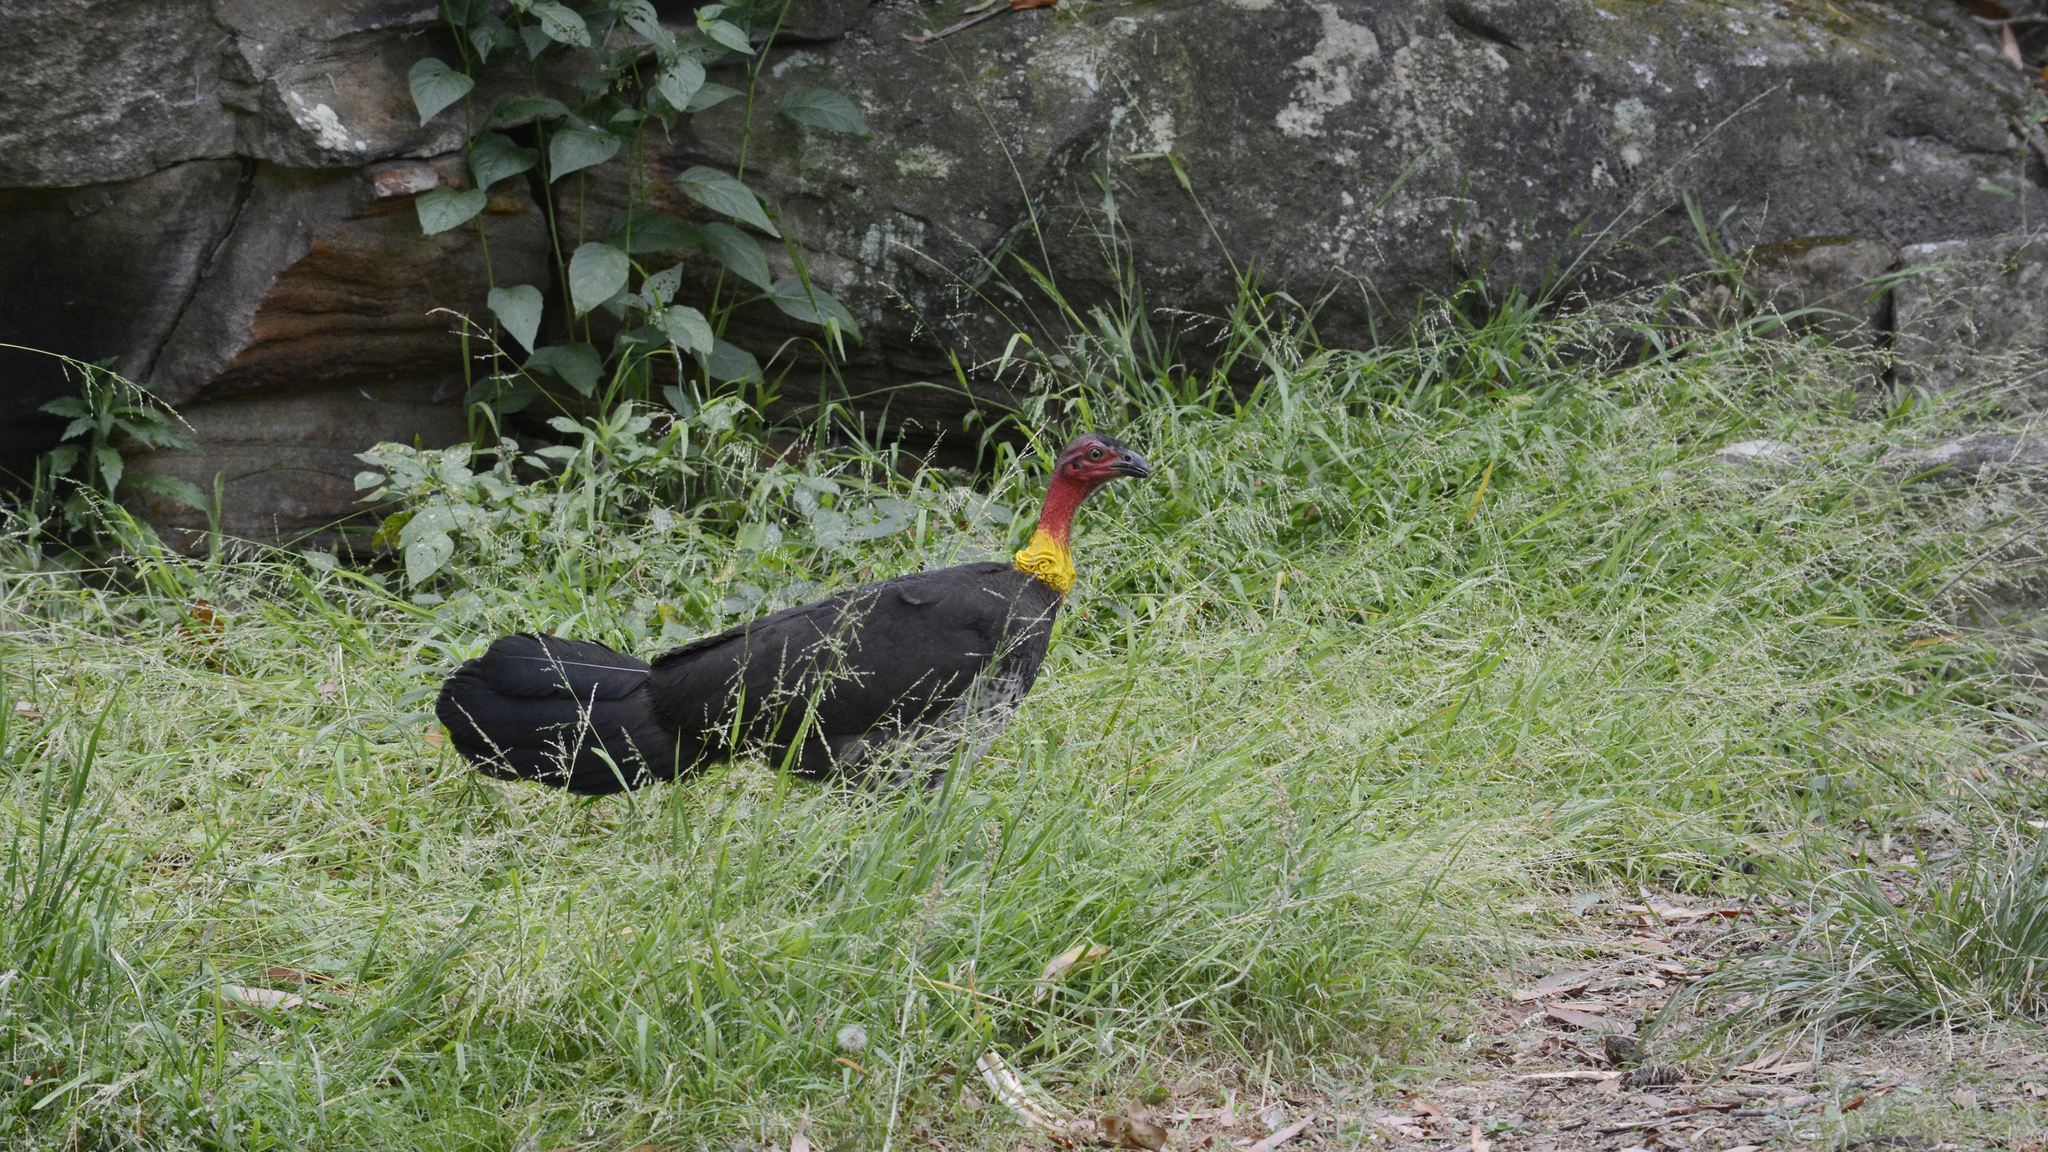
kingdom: Animalia
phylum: Chordata
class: Aves
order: Galliformes
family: Megapodiidae
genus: Alectura
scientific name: Alectura lathami
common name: Australian brushturkey
